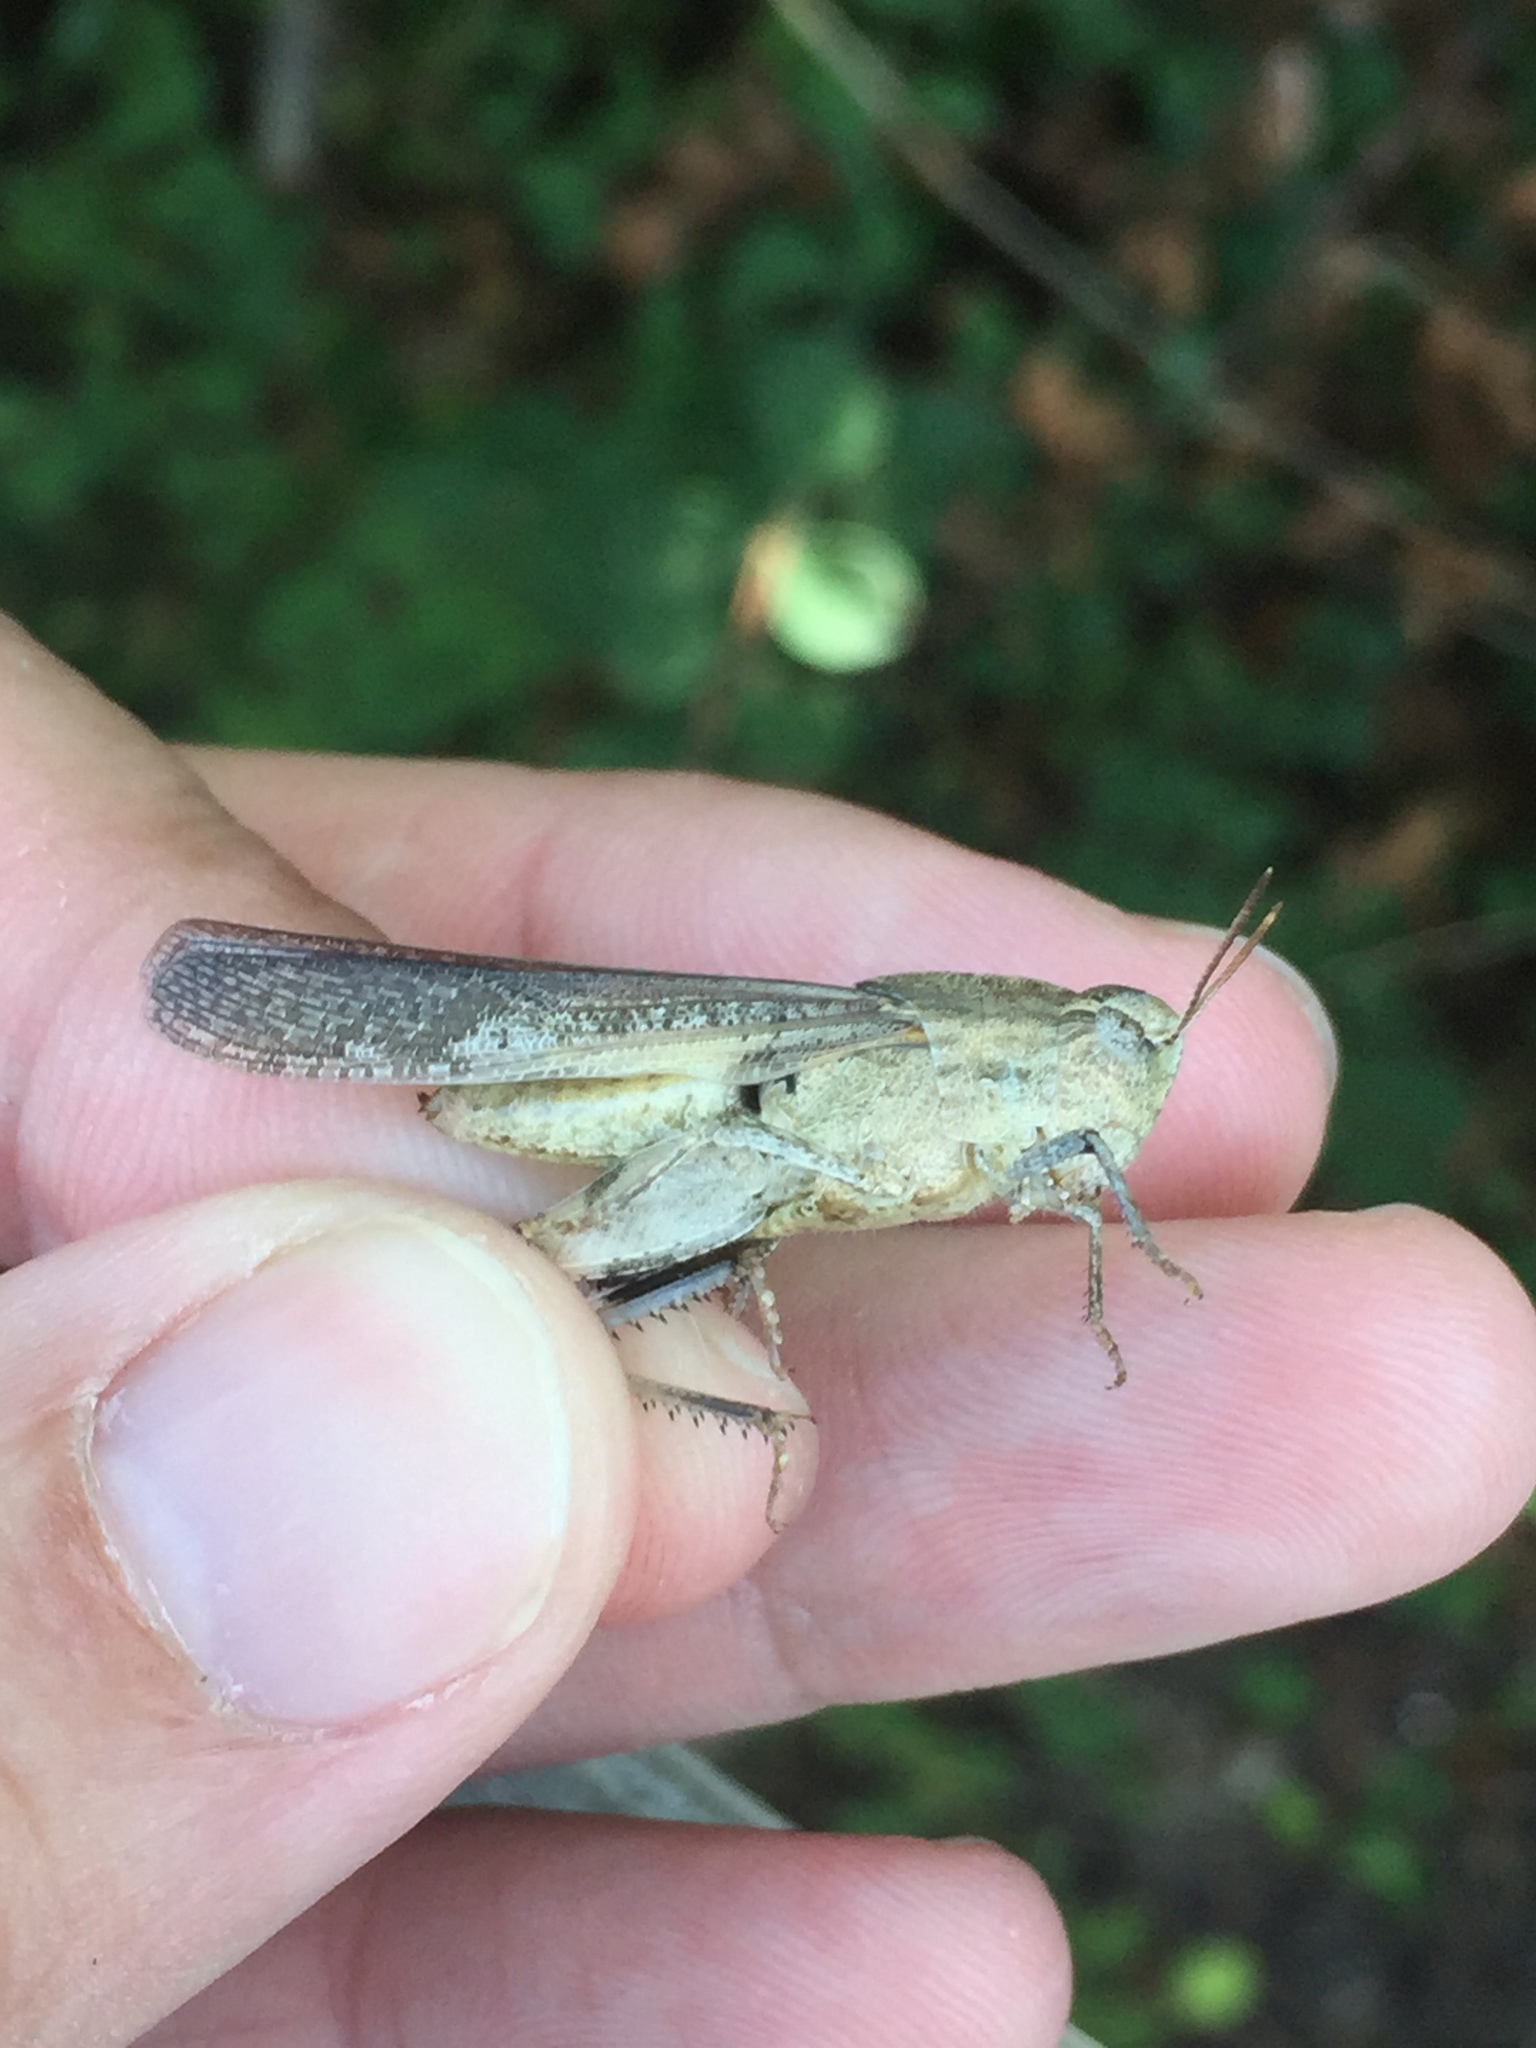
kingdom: Animalia
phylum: Arthropoda
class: Insecta
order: Orthoptera
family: Acrididae
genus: Chortophaga
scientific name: Chortophaga viridifasciata
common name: Green-striped grasshopper
